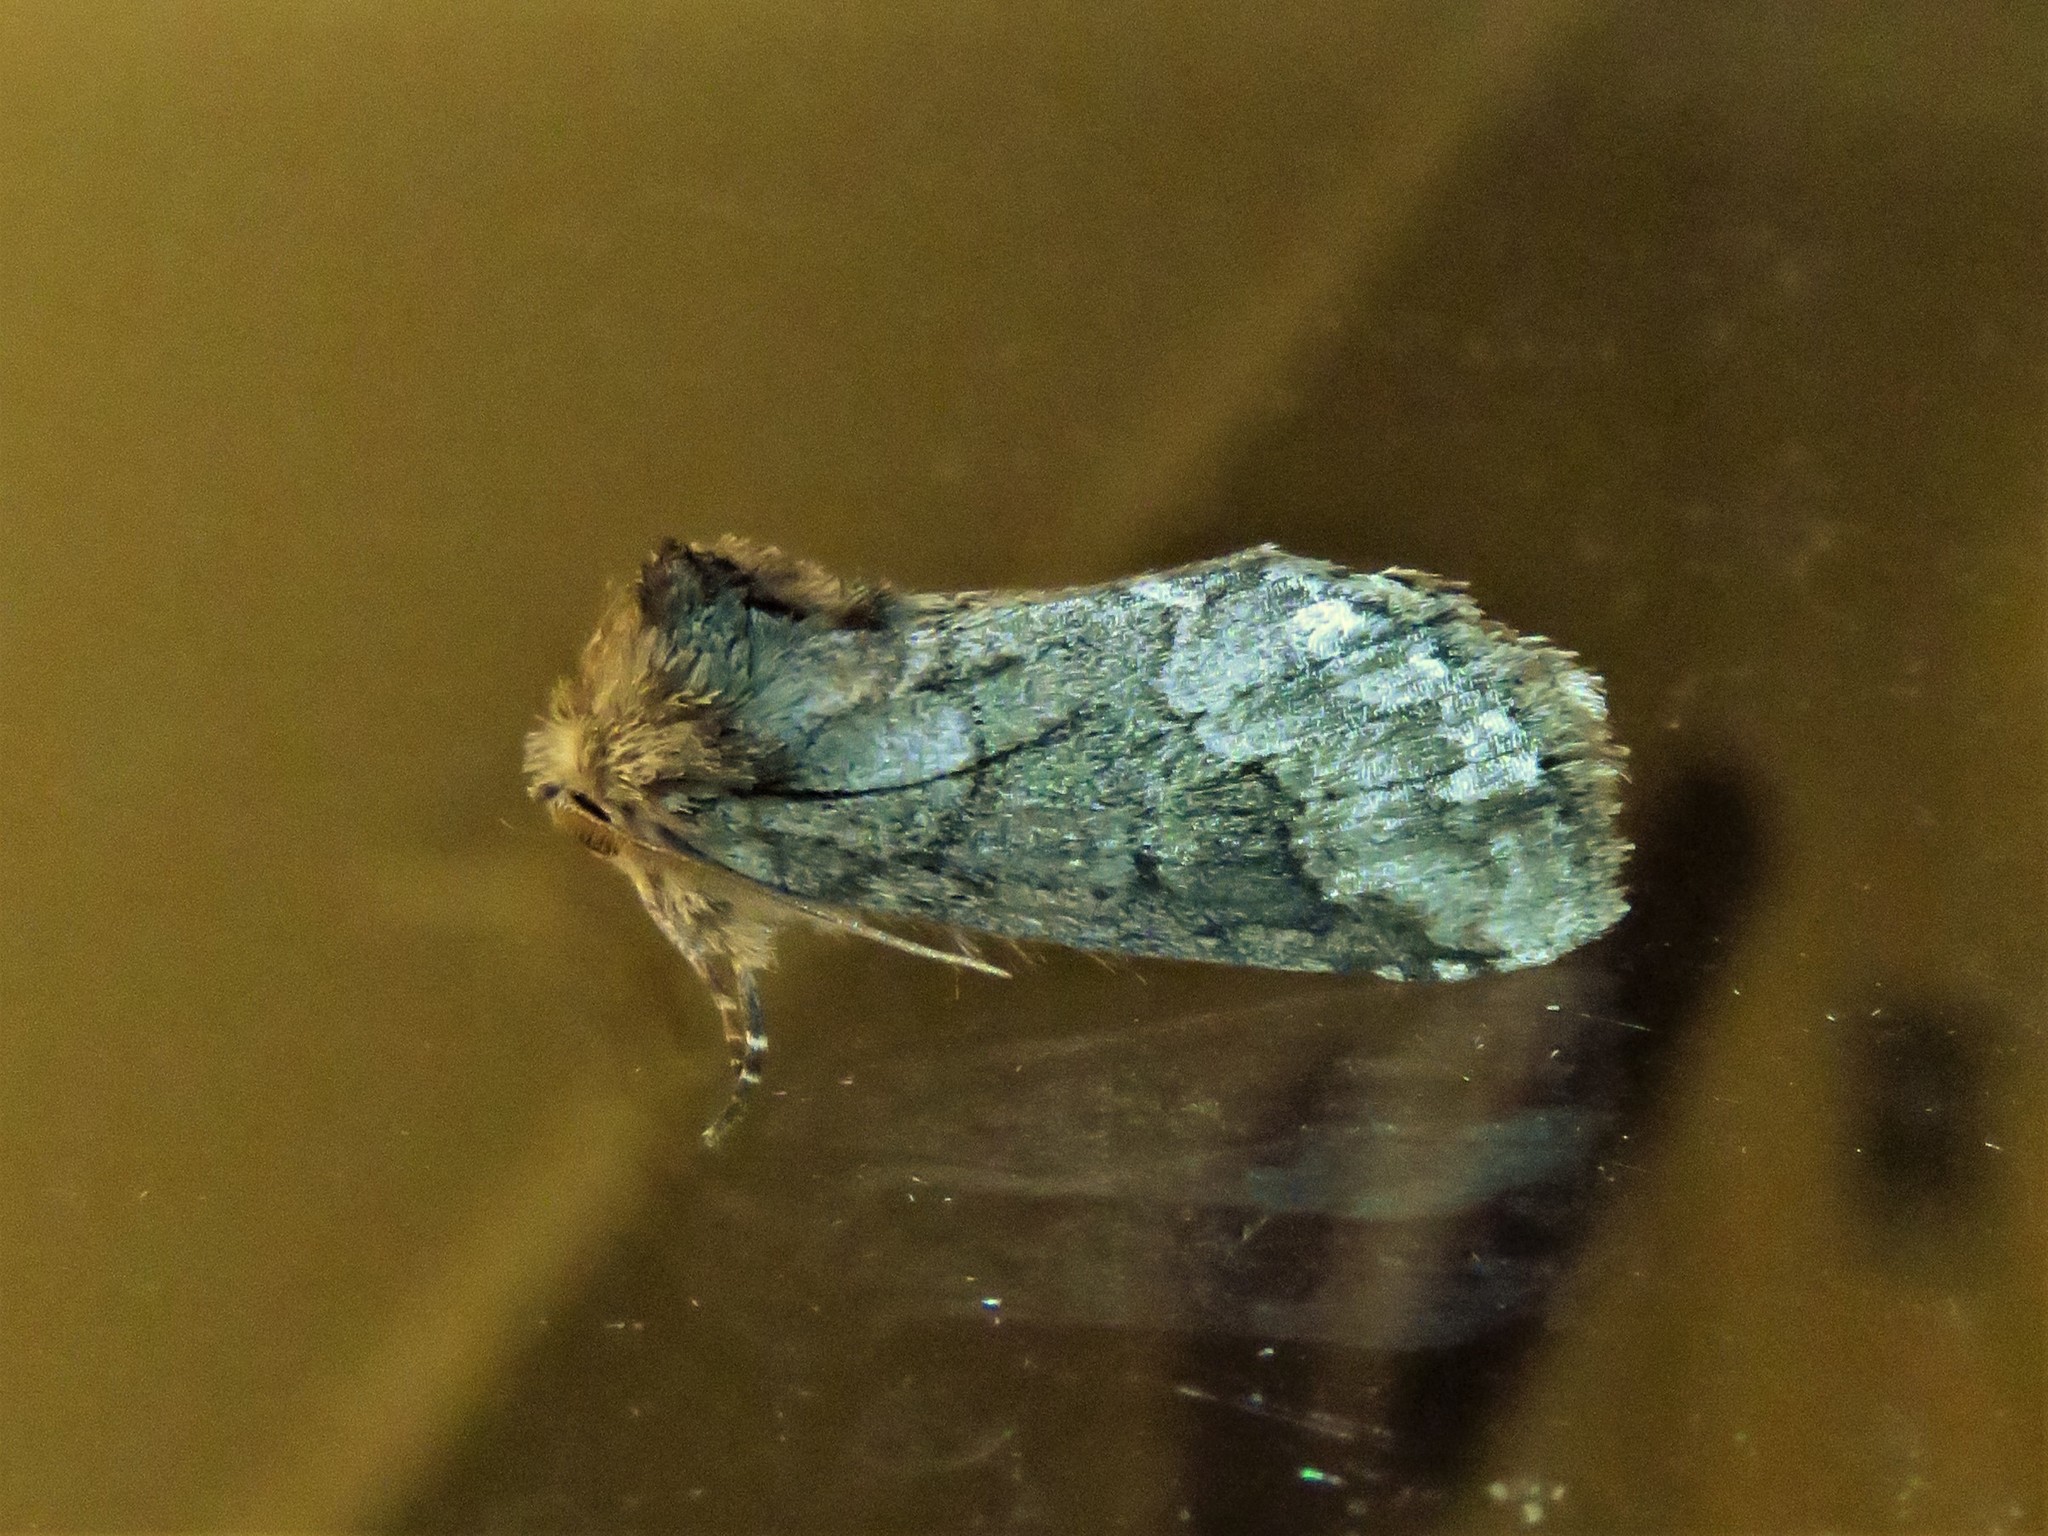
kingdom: Animalia
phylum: Arthropoda
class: Insecta
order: Lepidoptera
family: Notodontidae
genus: Lochmaeus
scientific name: Lochmaeus bilineata
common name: Double-lined prominent
